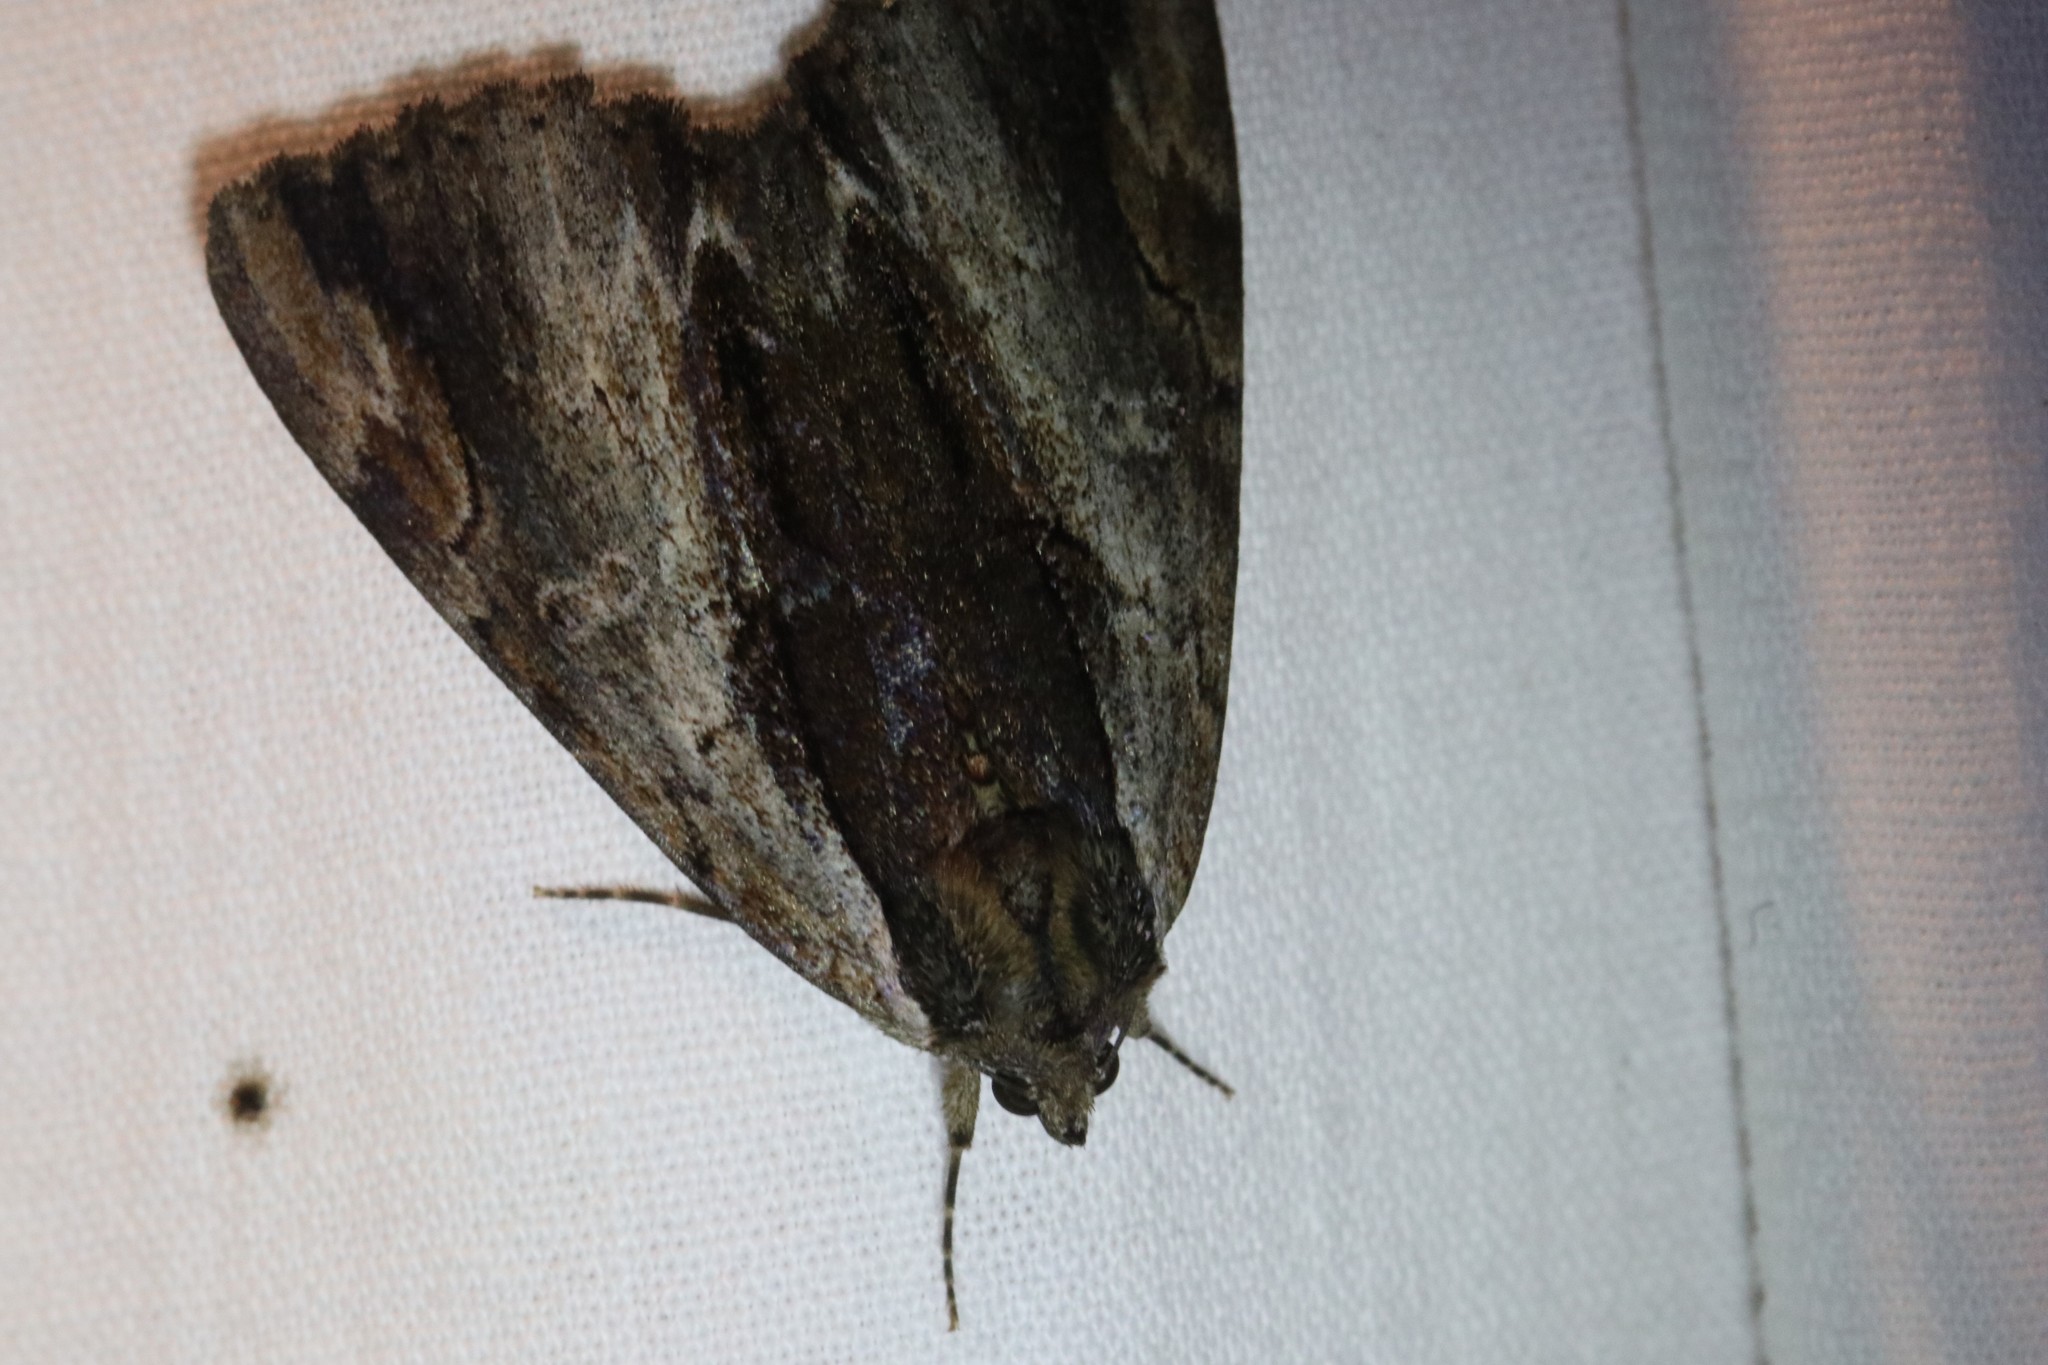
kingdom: Animalia
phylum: Arthropoda
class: Insecta
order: Lepidoptera
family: Erebidae
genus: Catocala
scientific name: Catocala ultronia
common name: Ultronia underwing
